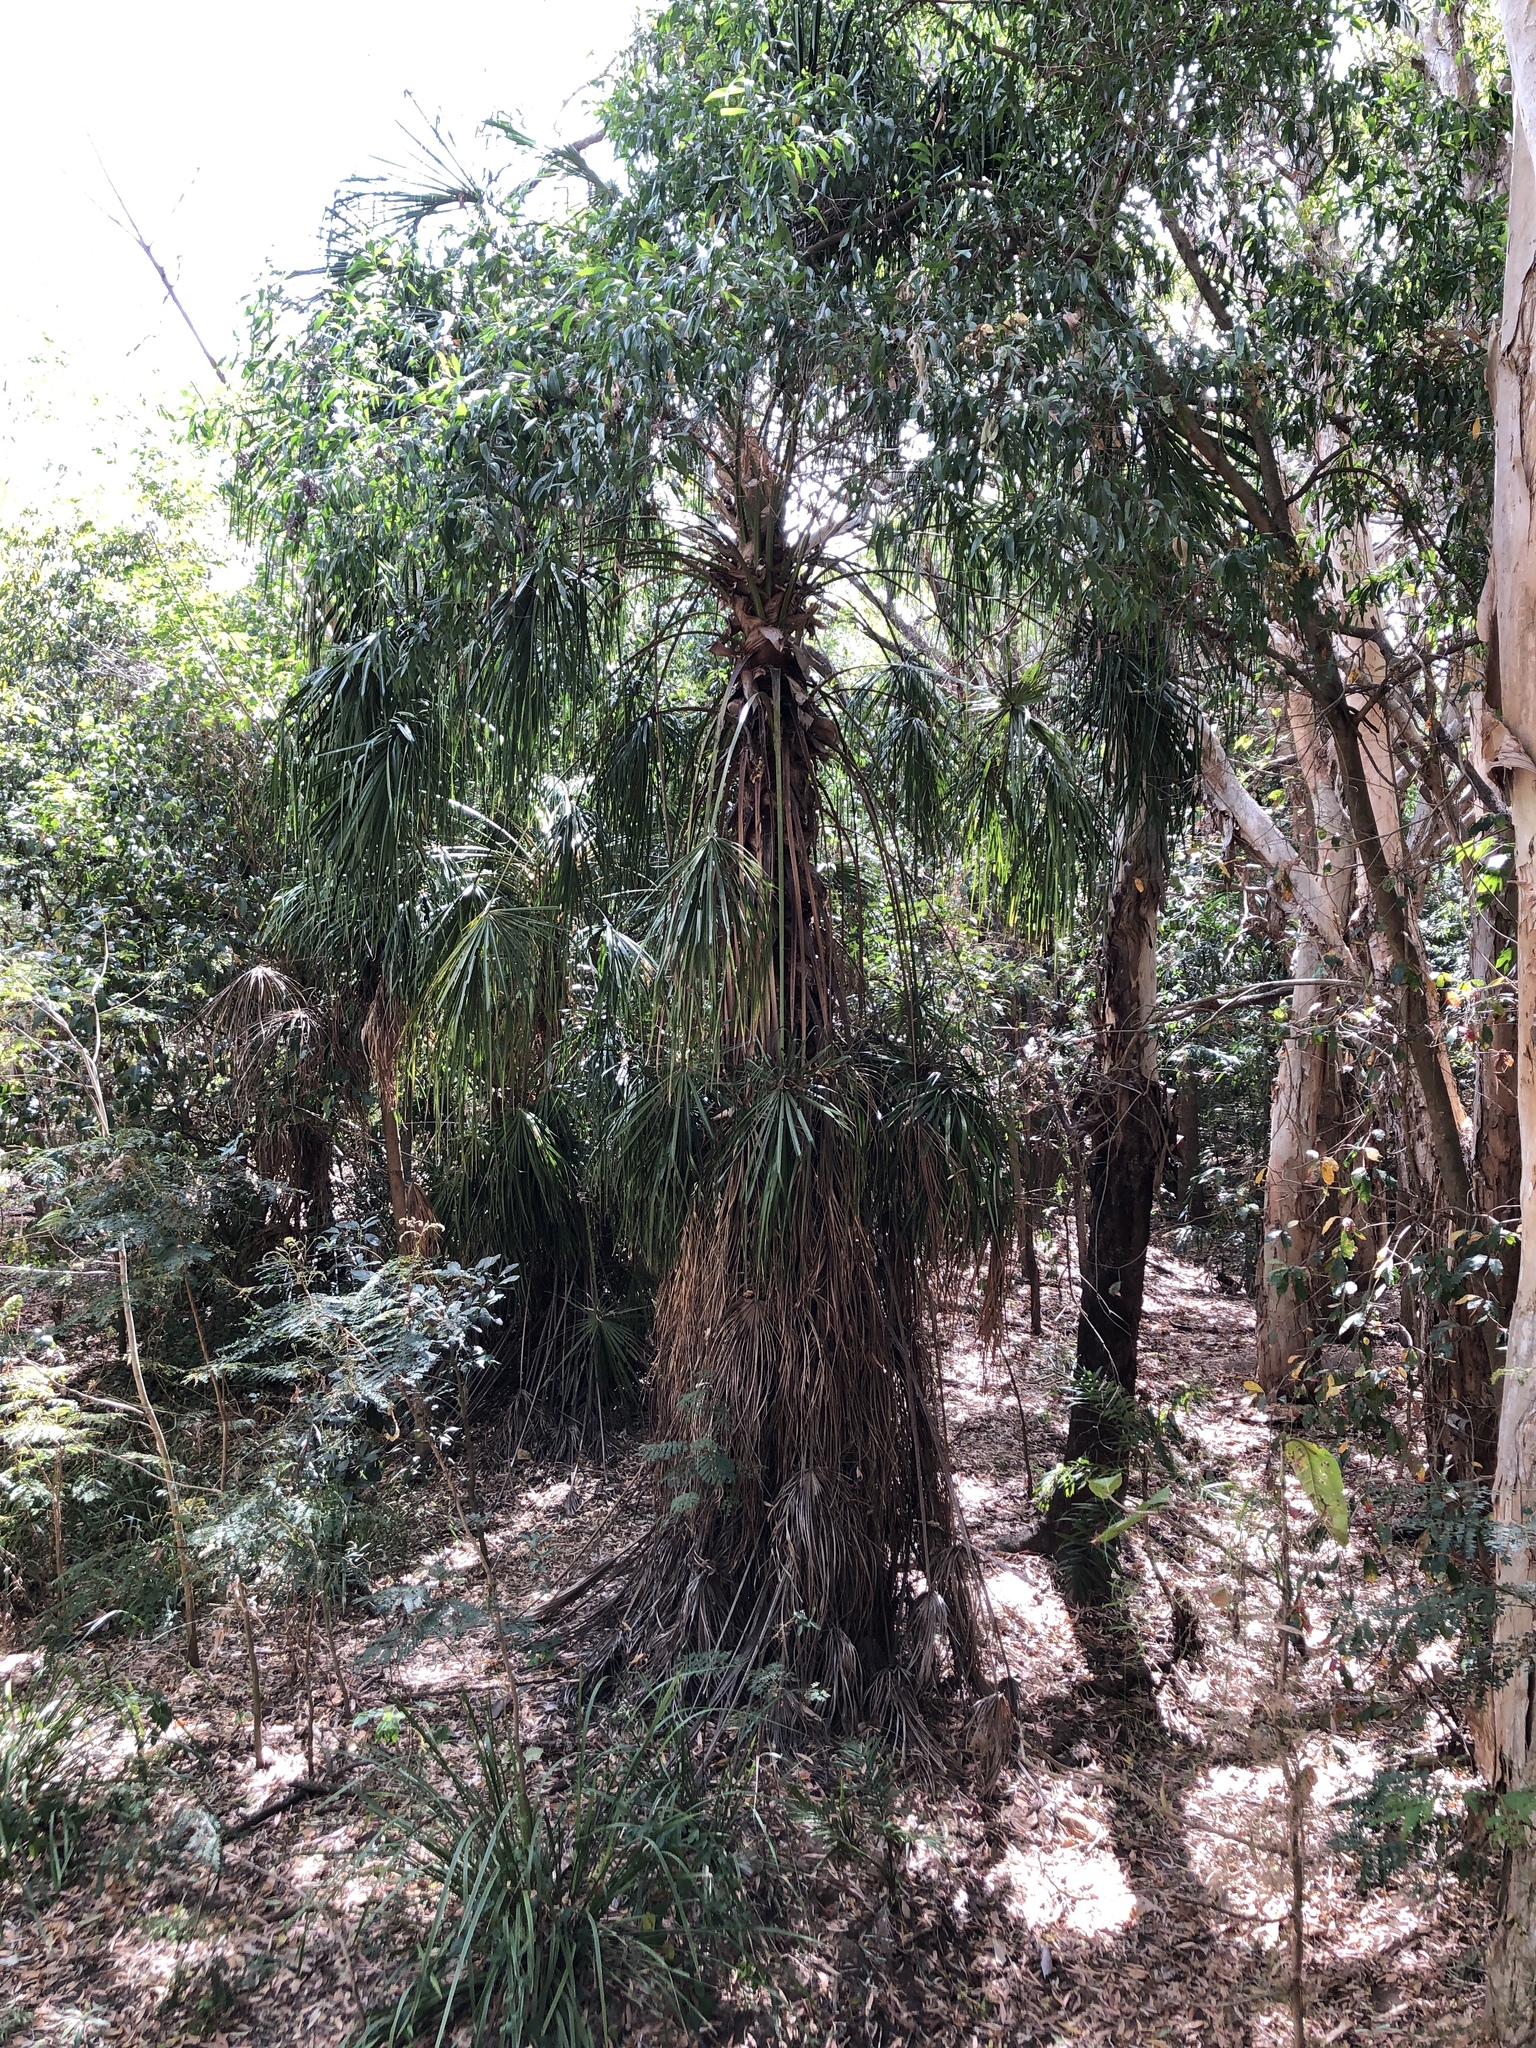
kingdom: Plantae
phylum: Tracheophyta
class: Liliopsida
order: Arecales
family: Arecaceae
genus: Livistona
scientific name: Livistona decora
